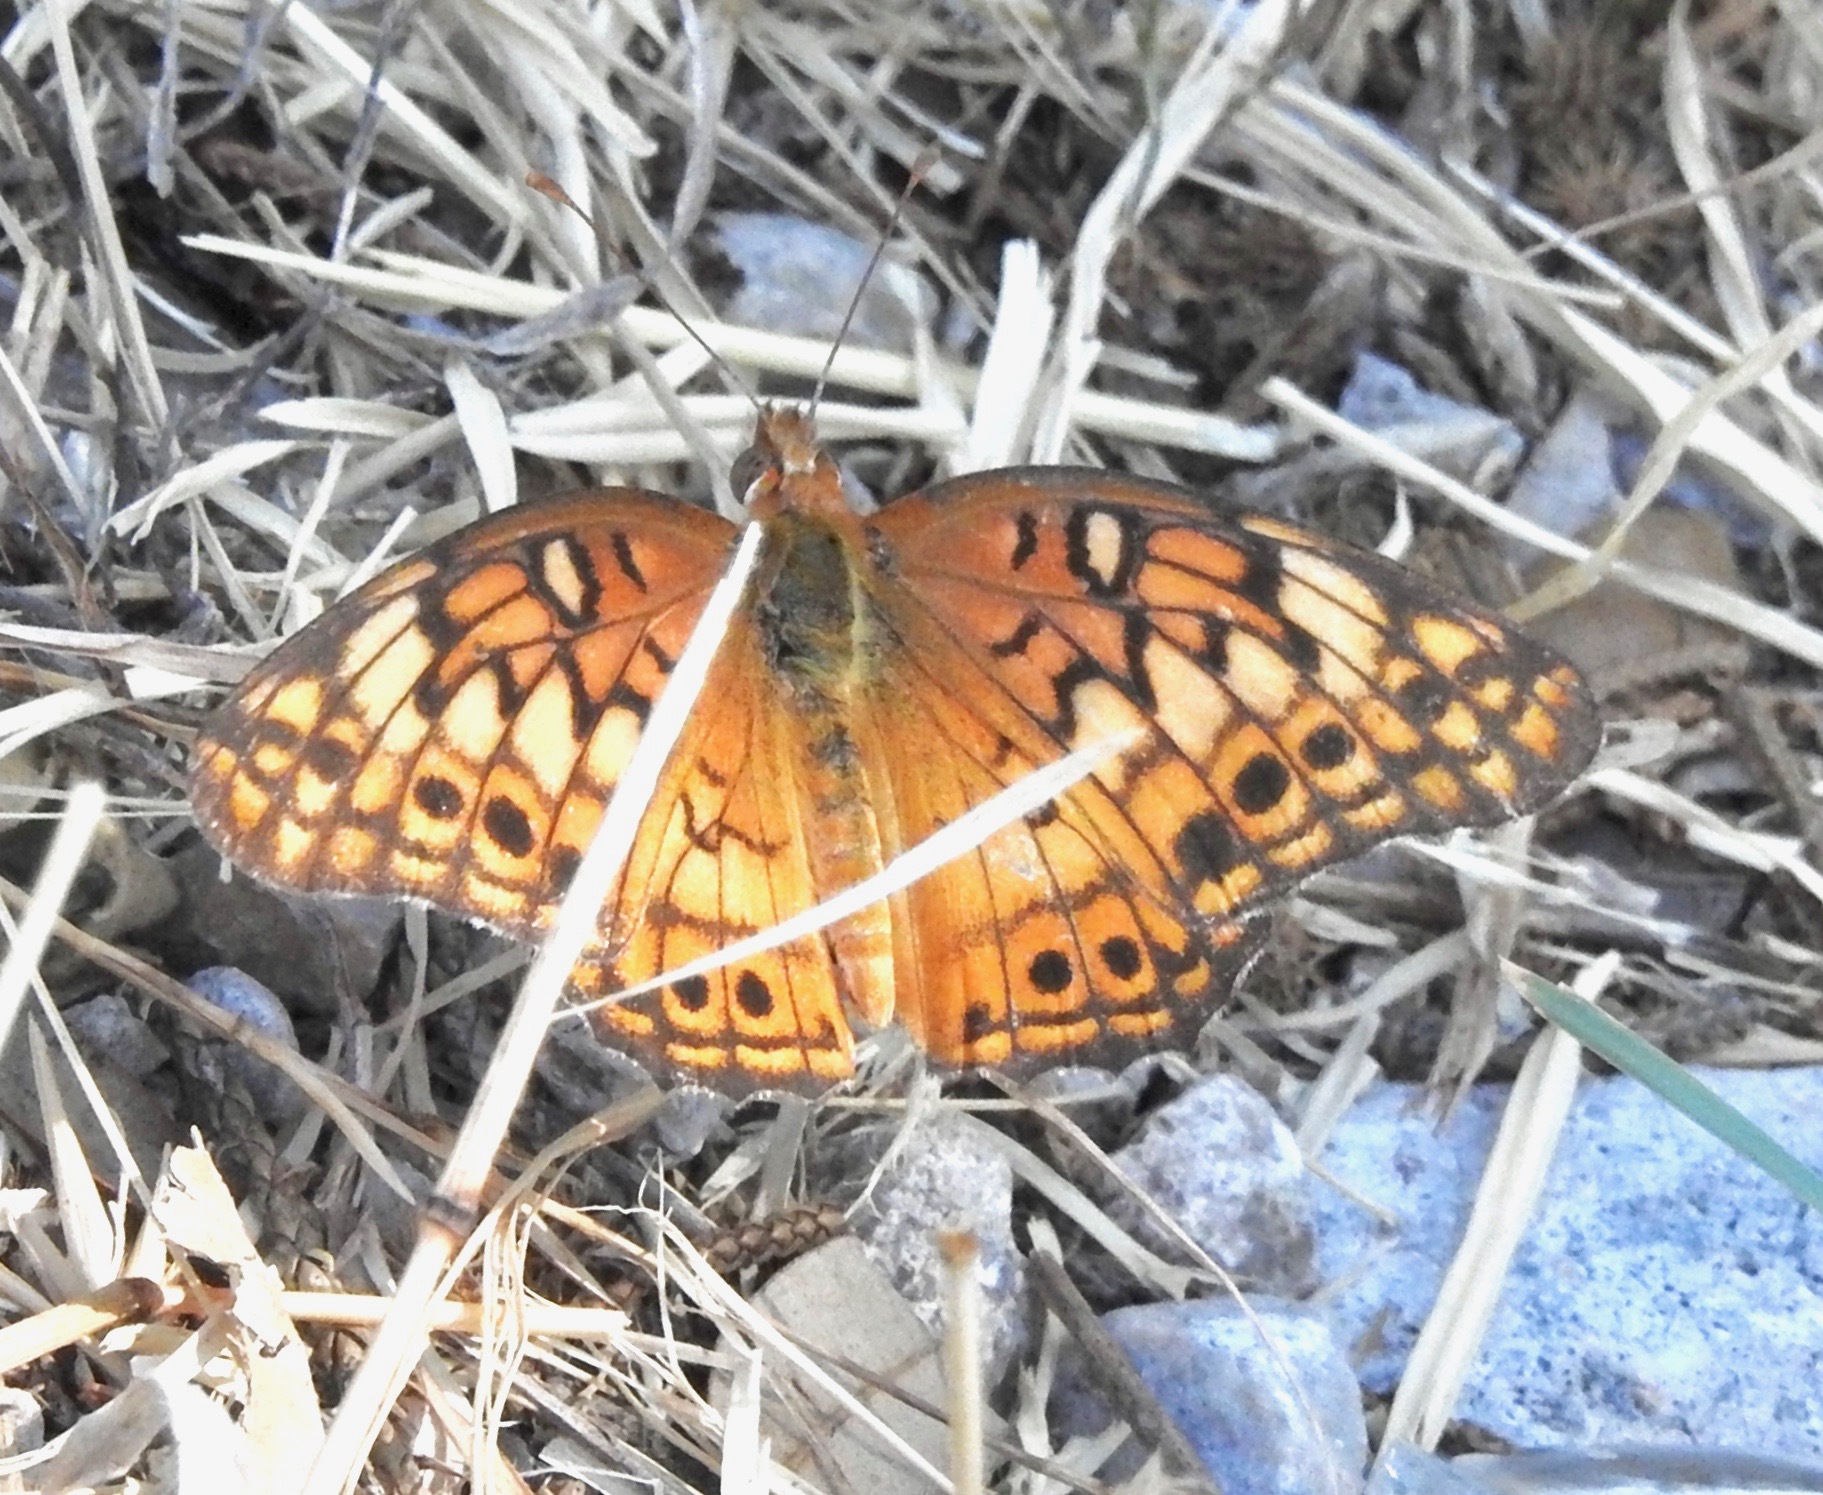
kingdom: Animalia
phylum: Arthropoda
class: Insecta
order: Lepidoptera
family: Nymphalidae
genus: Euptoieta
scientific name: Euptoieta claudia
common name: Variegated fritillary
